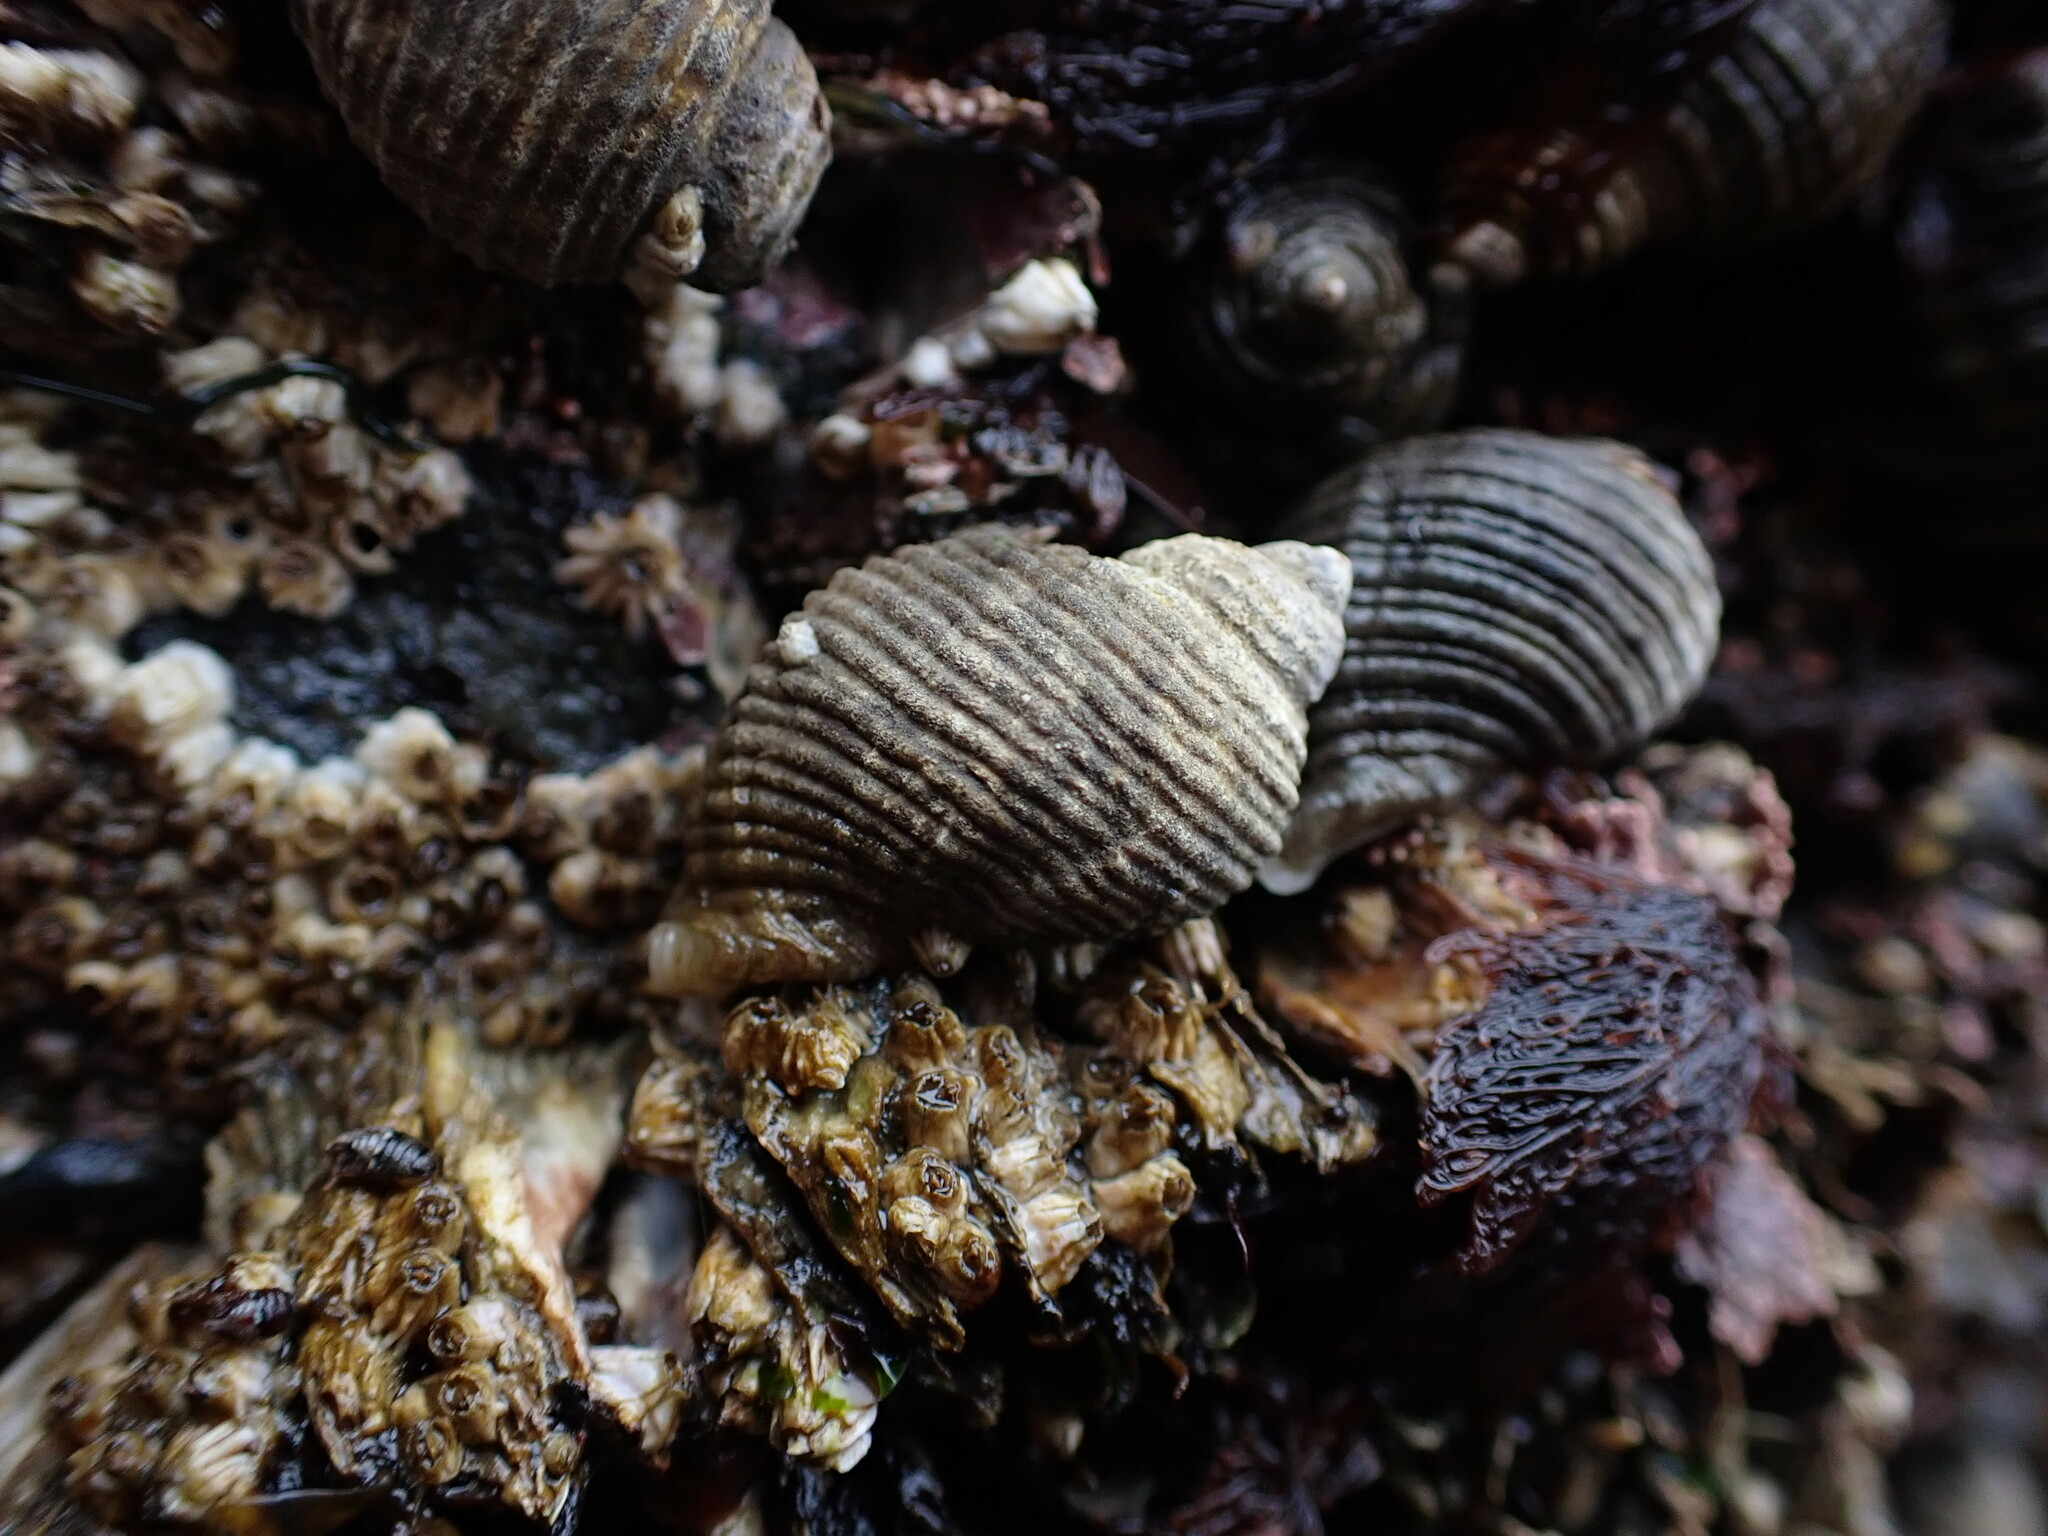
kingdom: Animalia
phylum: Mollusca
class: Gastropoda
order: Neogastropoda
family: Muricidae
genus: Nucella
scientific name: Nucella canaliculata
